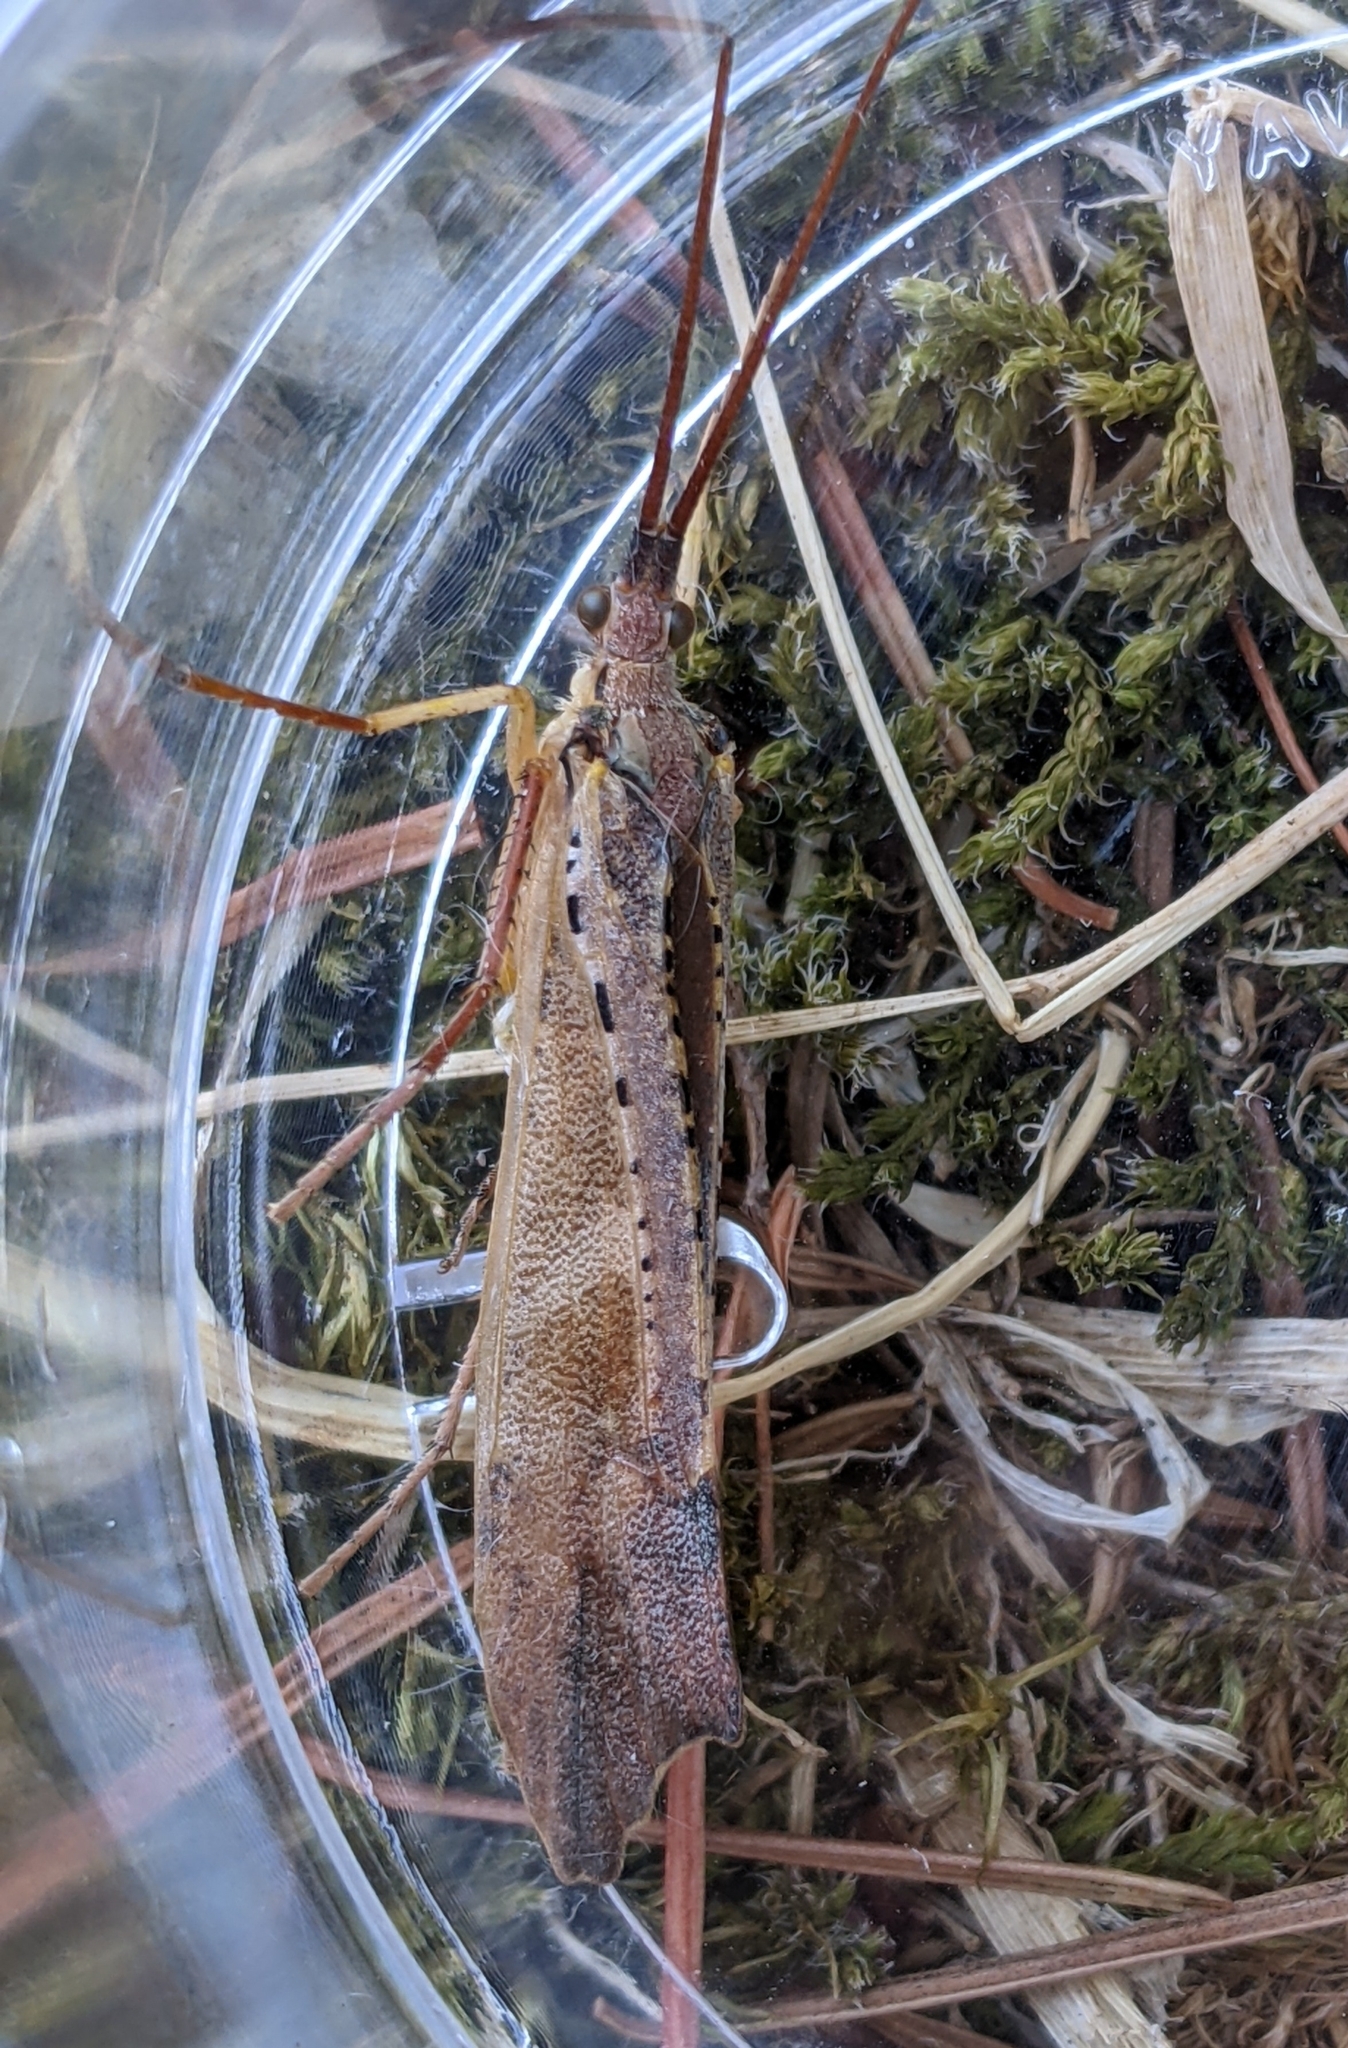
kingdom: Animalia
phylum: Arthropoda
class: Insecta
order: Trichoptera
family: Limnephilidae
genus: Nemotaulius
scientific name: Nemotaulius hostilis
